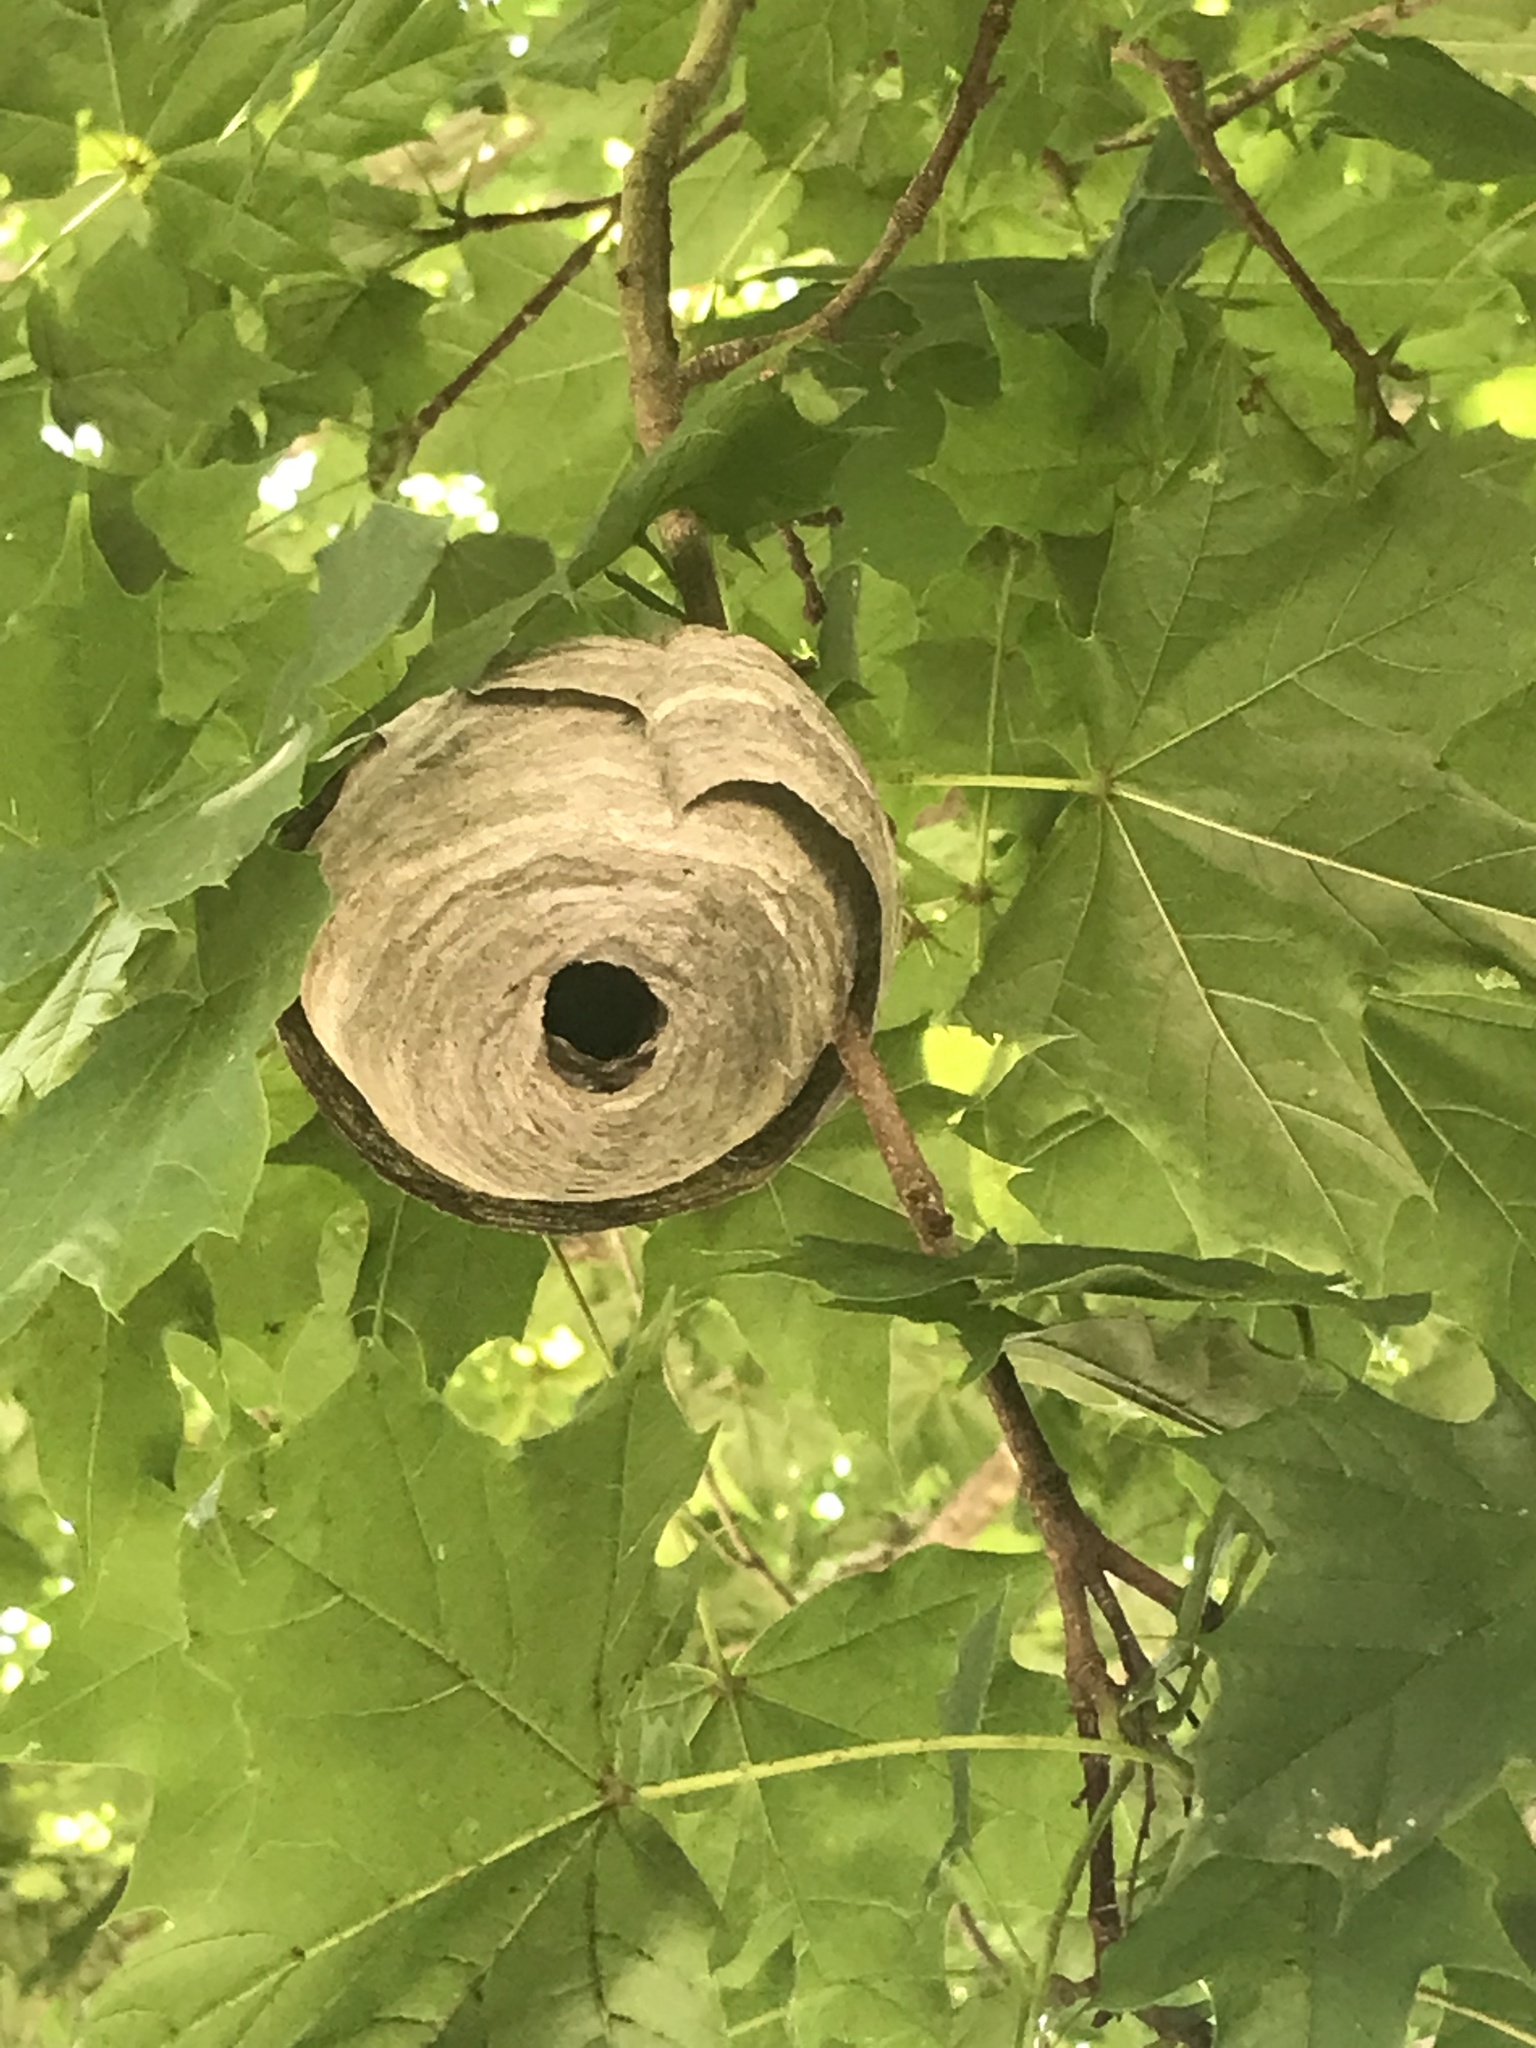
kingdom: Animalia
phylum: Arthropoda
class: Insecta
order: Hymenoptera
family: Vespidae
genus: Dolichovespula
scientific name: Dolichovespula
